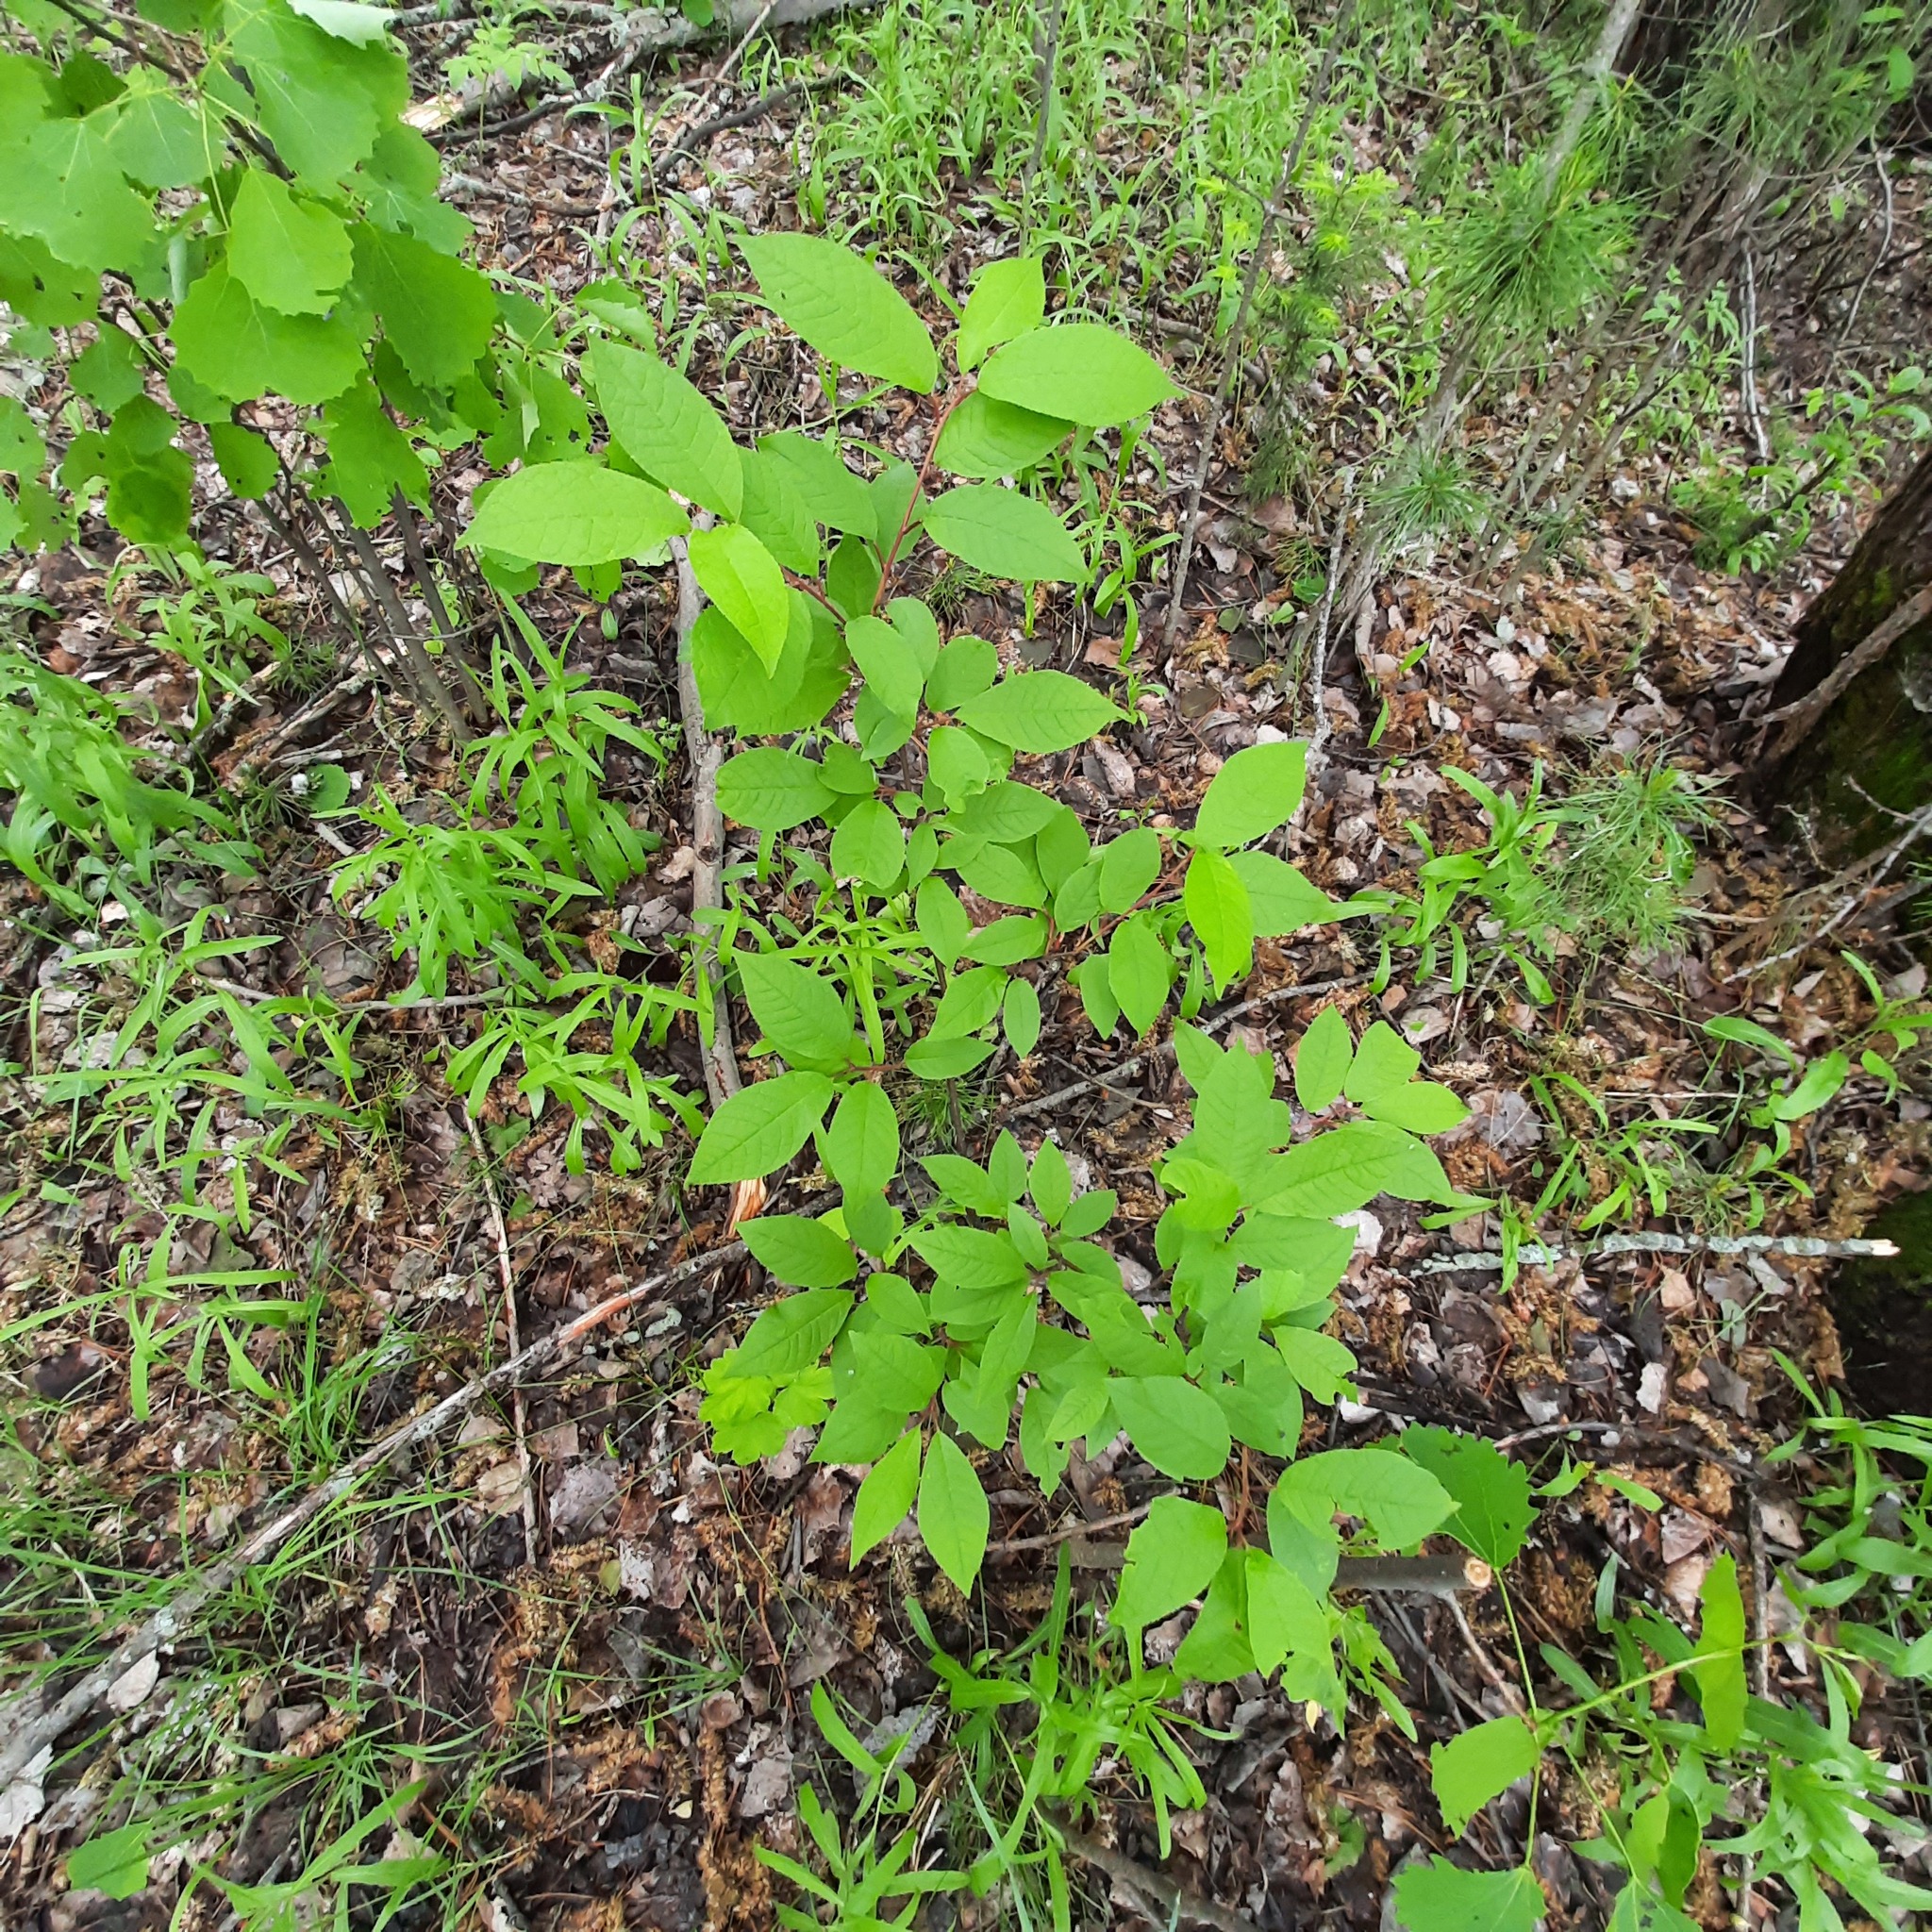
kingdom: Plantae
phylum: Tracheophyta
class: Magnoliopsida
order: Rosales
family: Rosaceae
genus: Prunus
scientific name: Prunus padus
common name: Bird cherry
